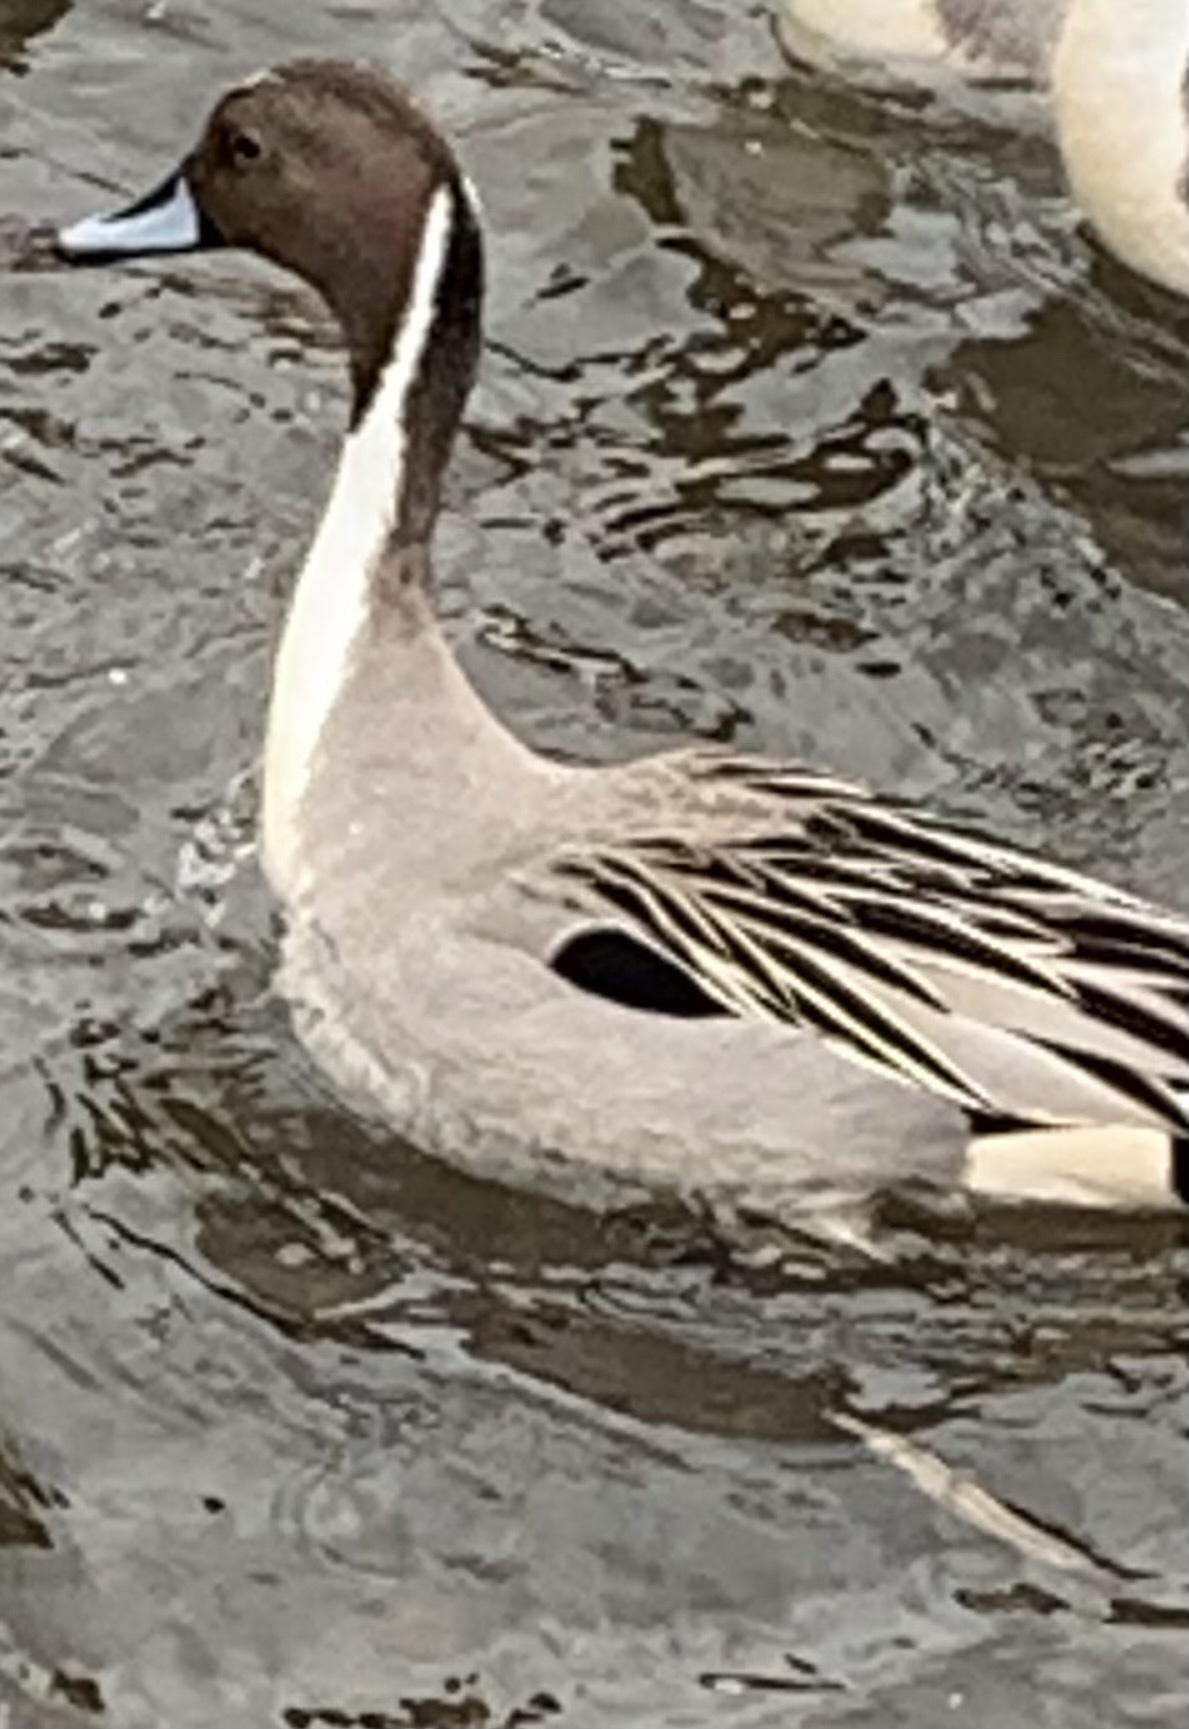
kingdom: Animalia
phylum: Chordata
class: Aves
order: Anseriformes
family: Anatidae
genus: Anas
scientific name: Anas acuta
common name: Northern pintail
